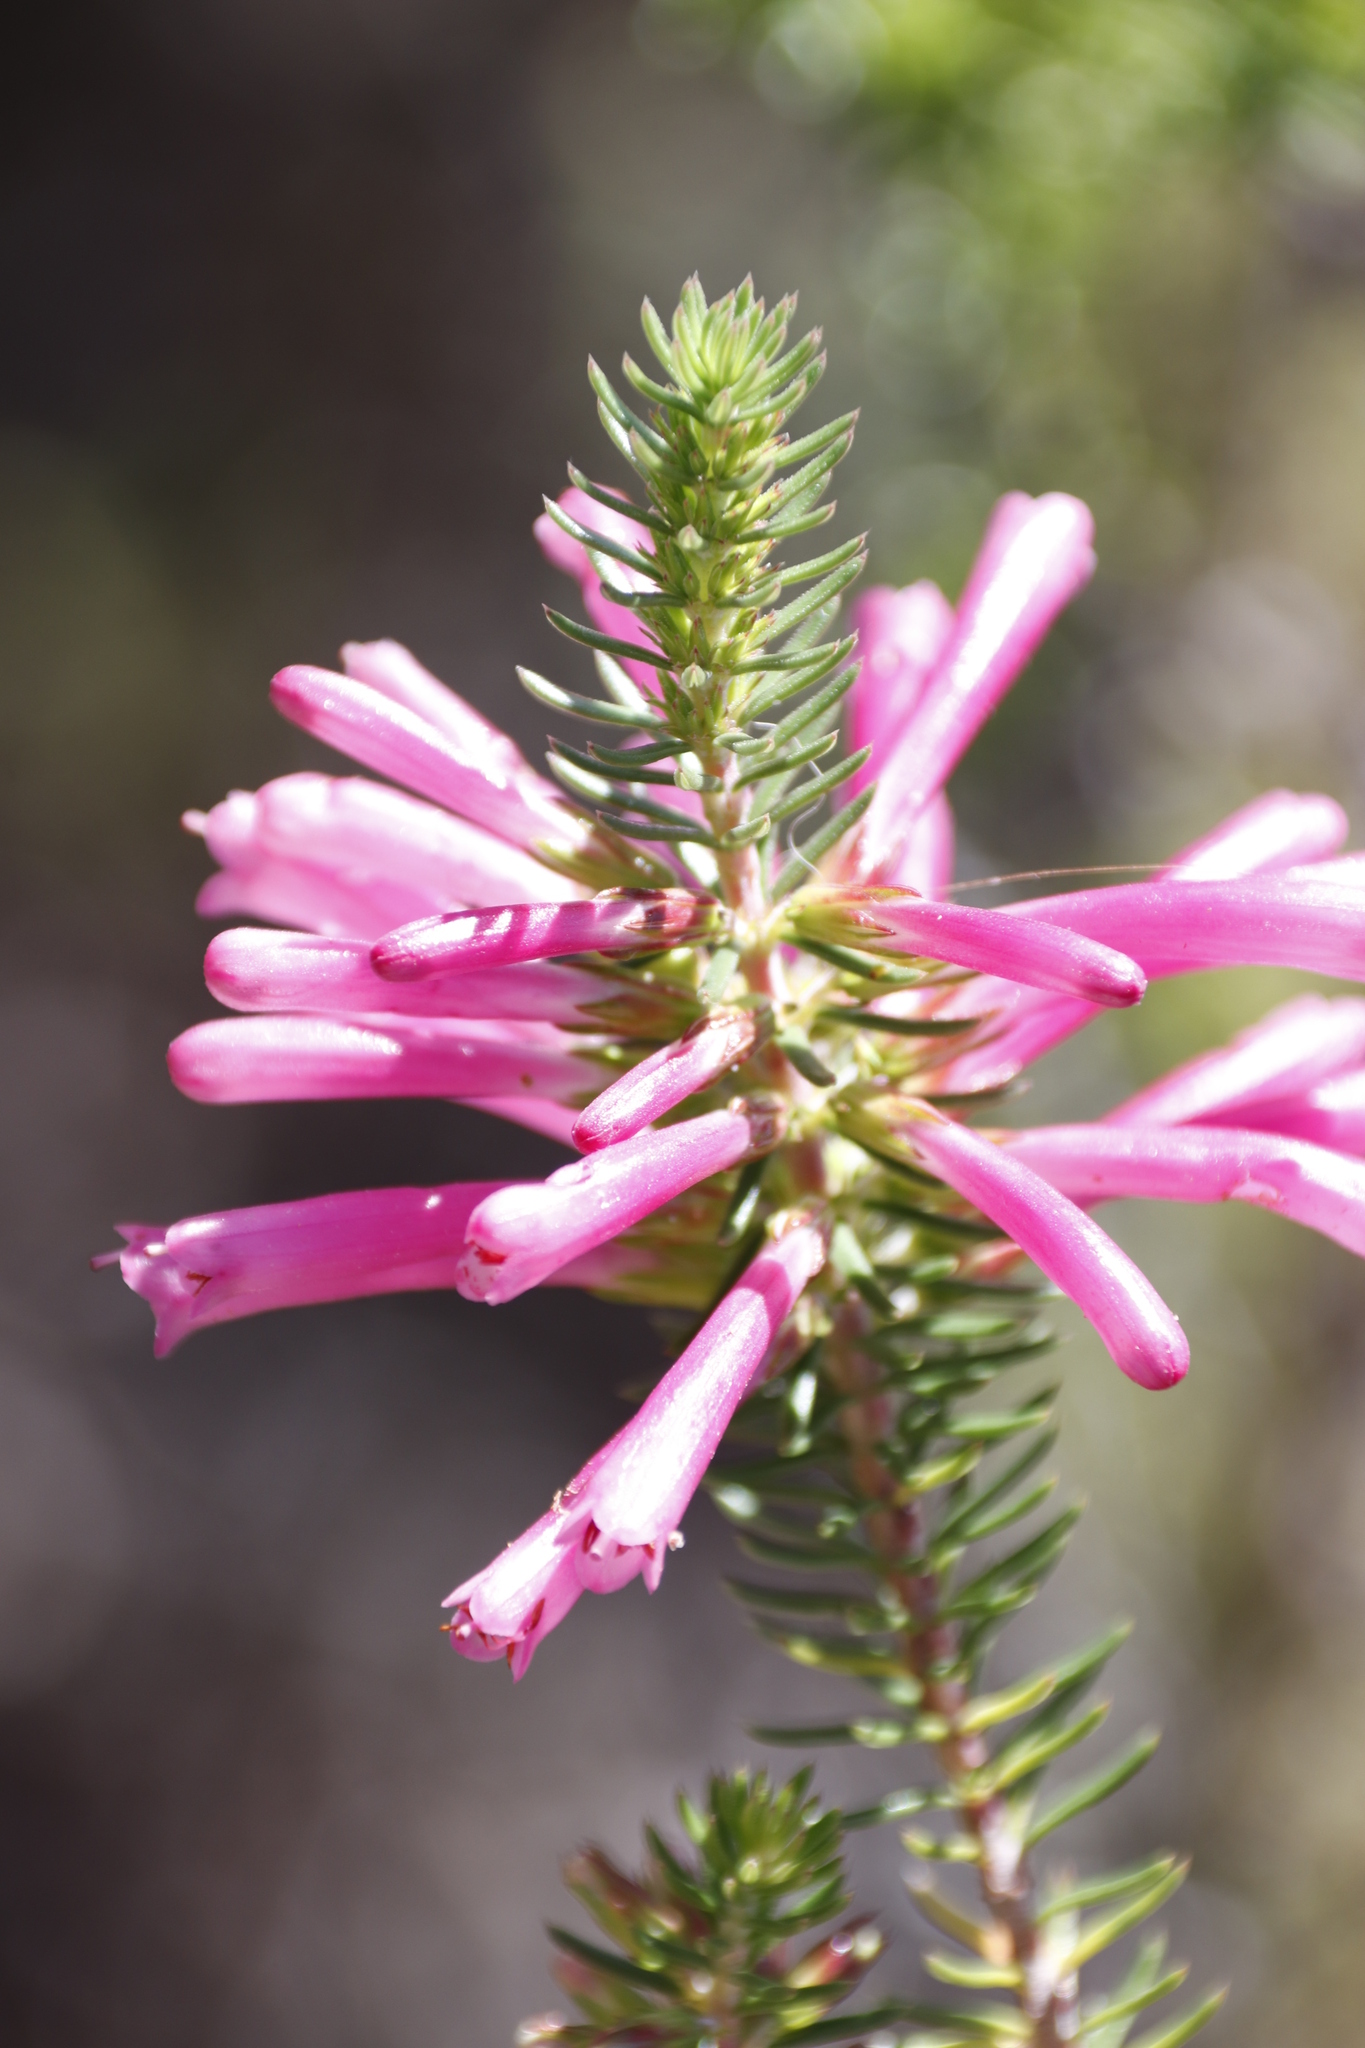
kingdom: Plantae
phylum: Tracheophyta
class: Magnoliopsida
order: Ericales
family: Ericaceae
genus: Erica
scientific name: Erica abietina
